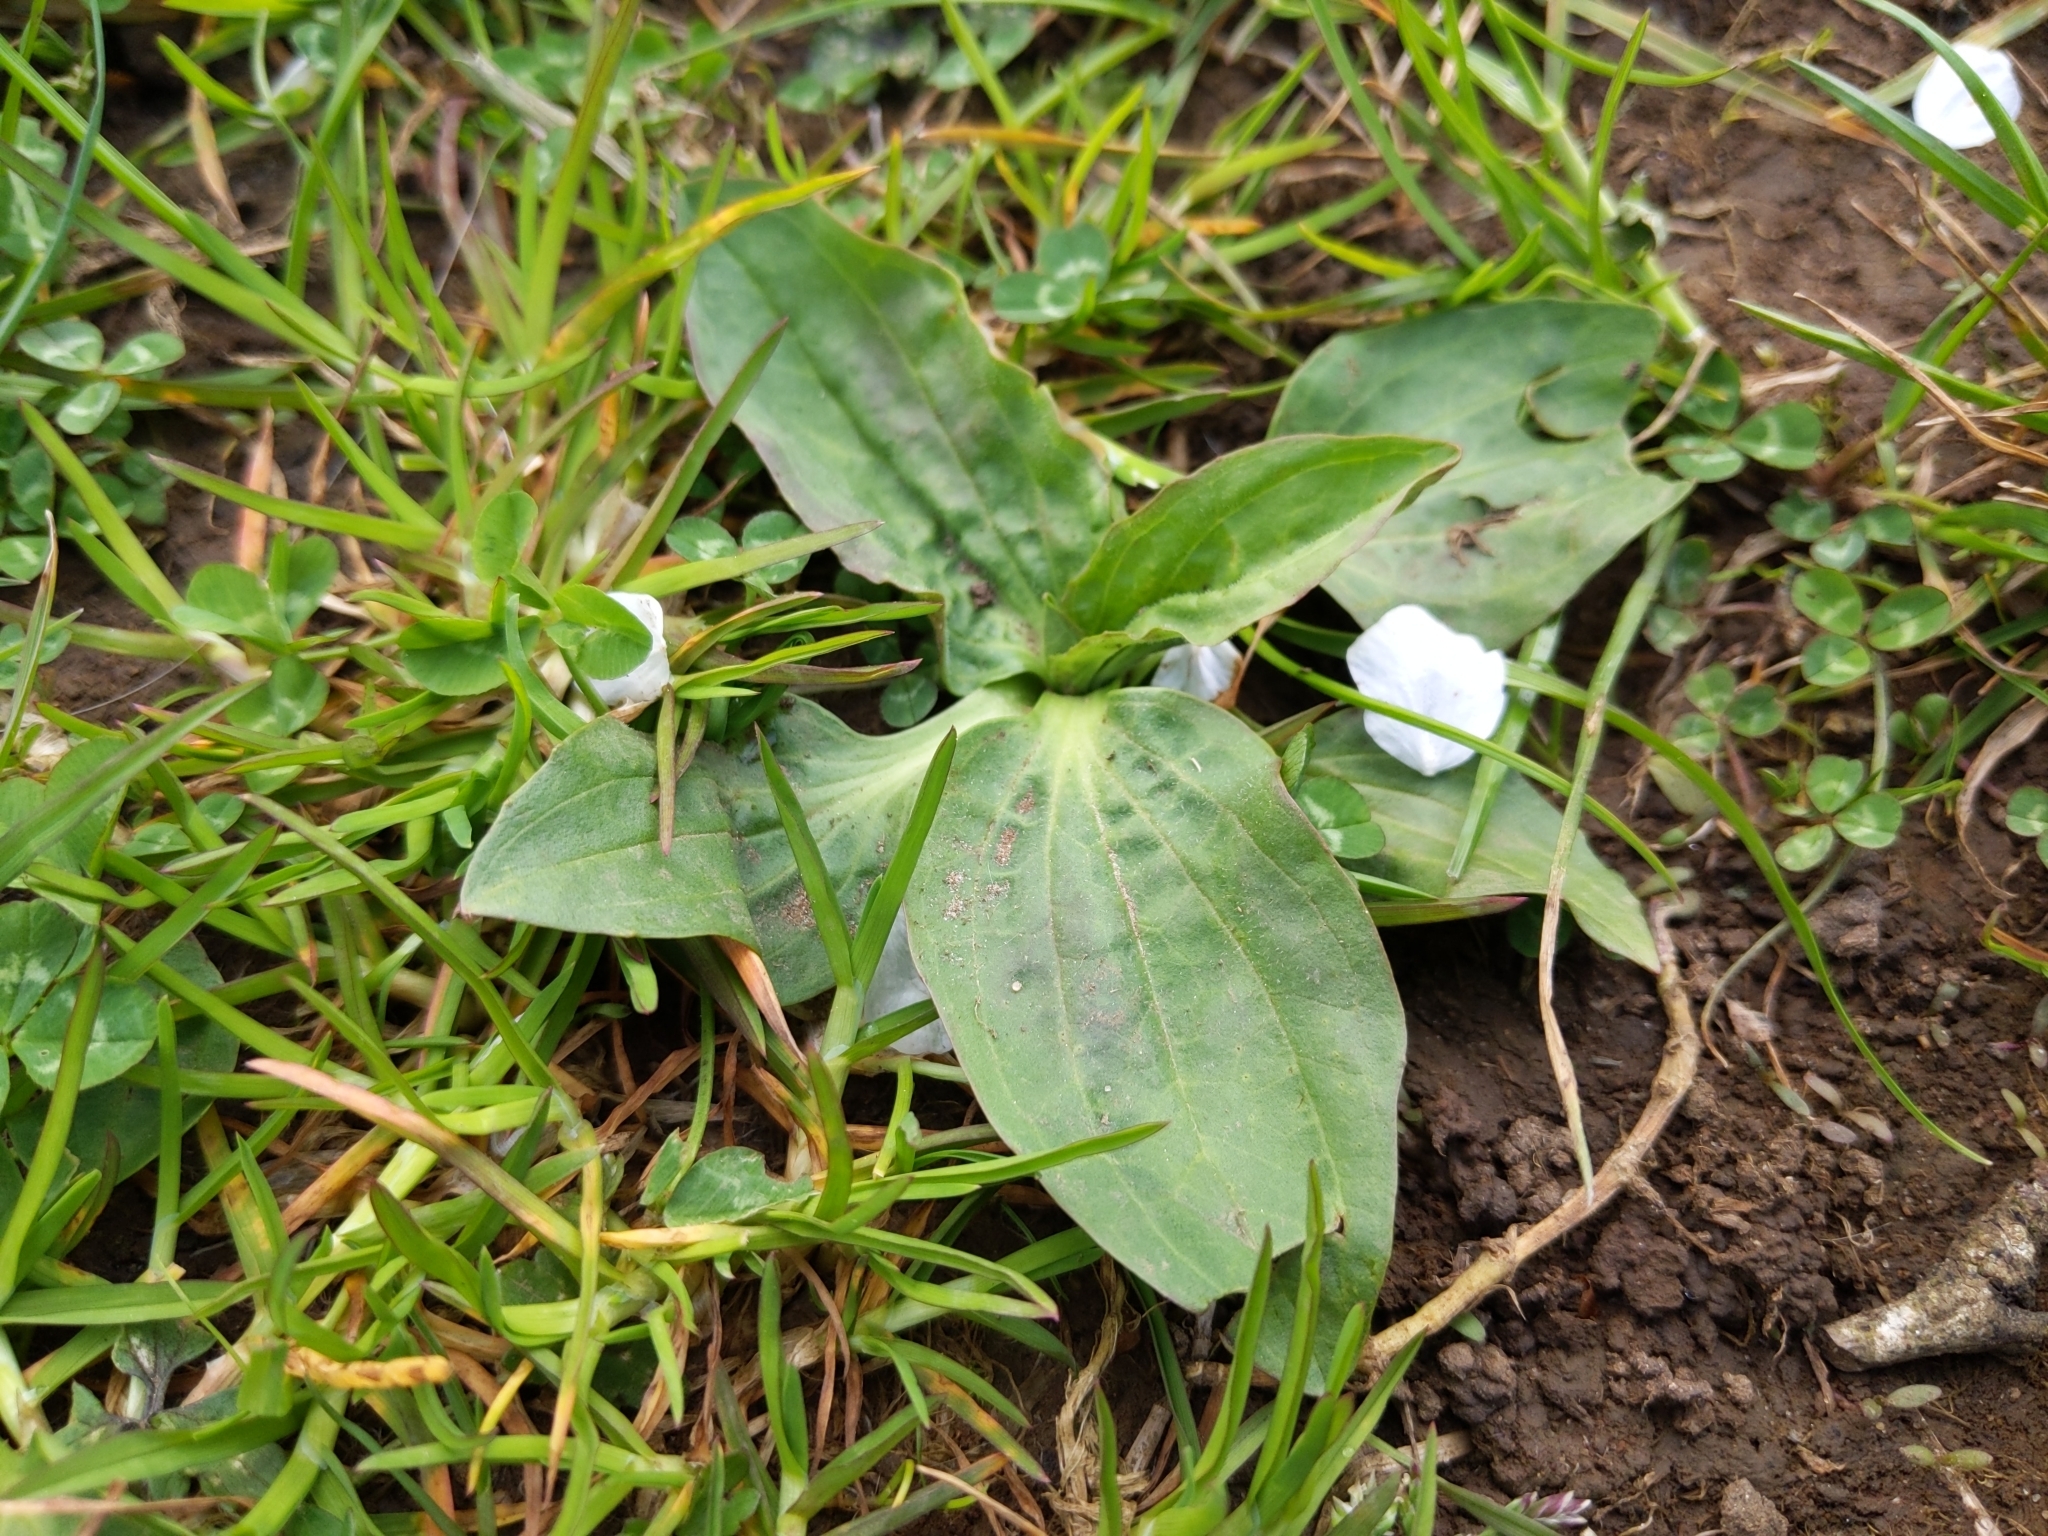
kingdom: Plantae
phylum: Tracheophyta
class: Magnoliopsida
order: Lamiales
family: Plantaginaceae
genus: Plantago
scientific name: Plantago major
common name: Common plantain
